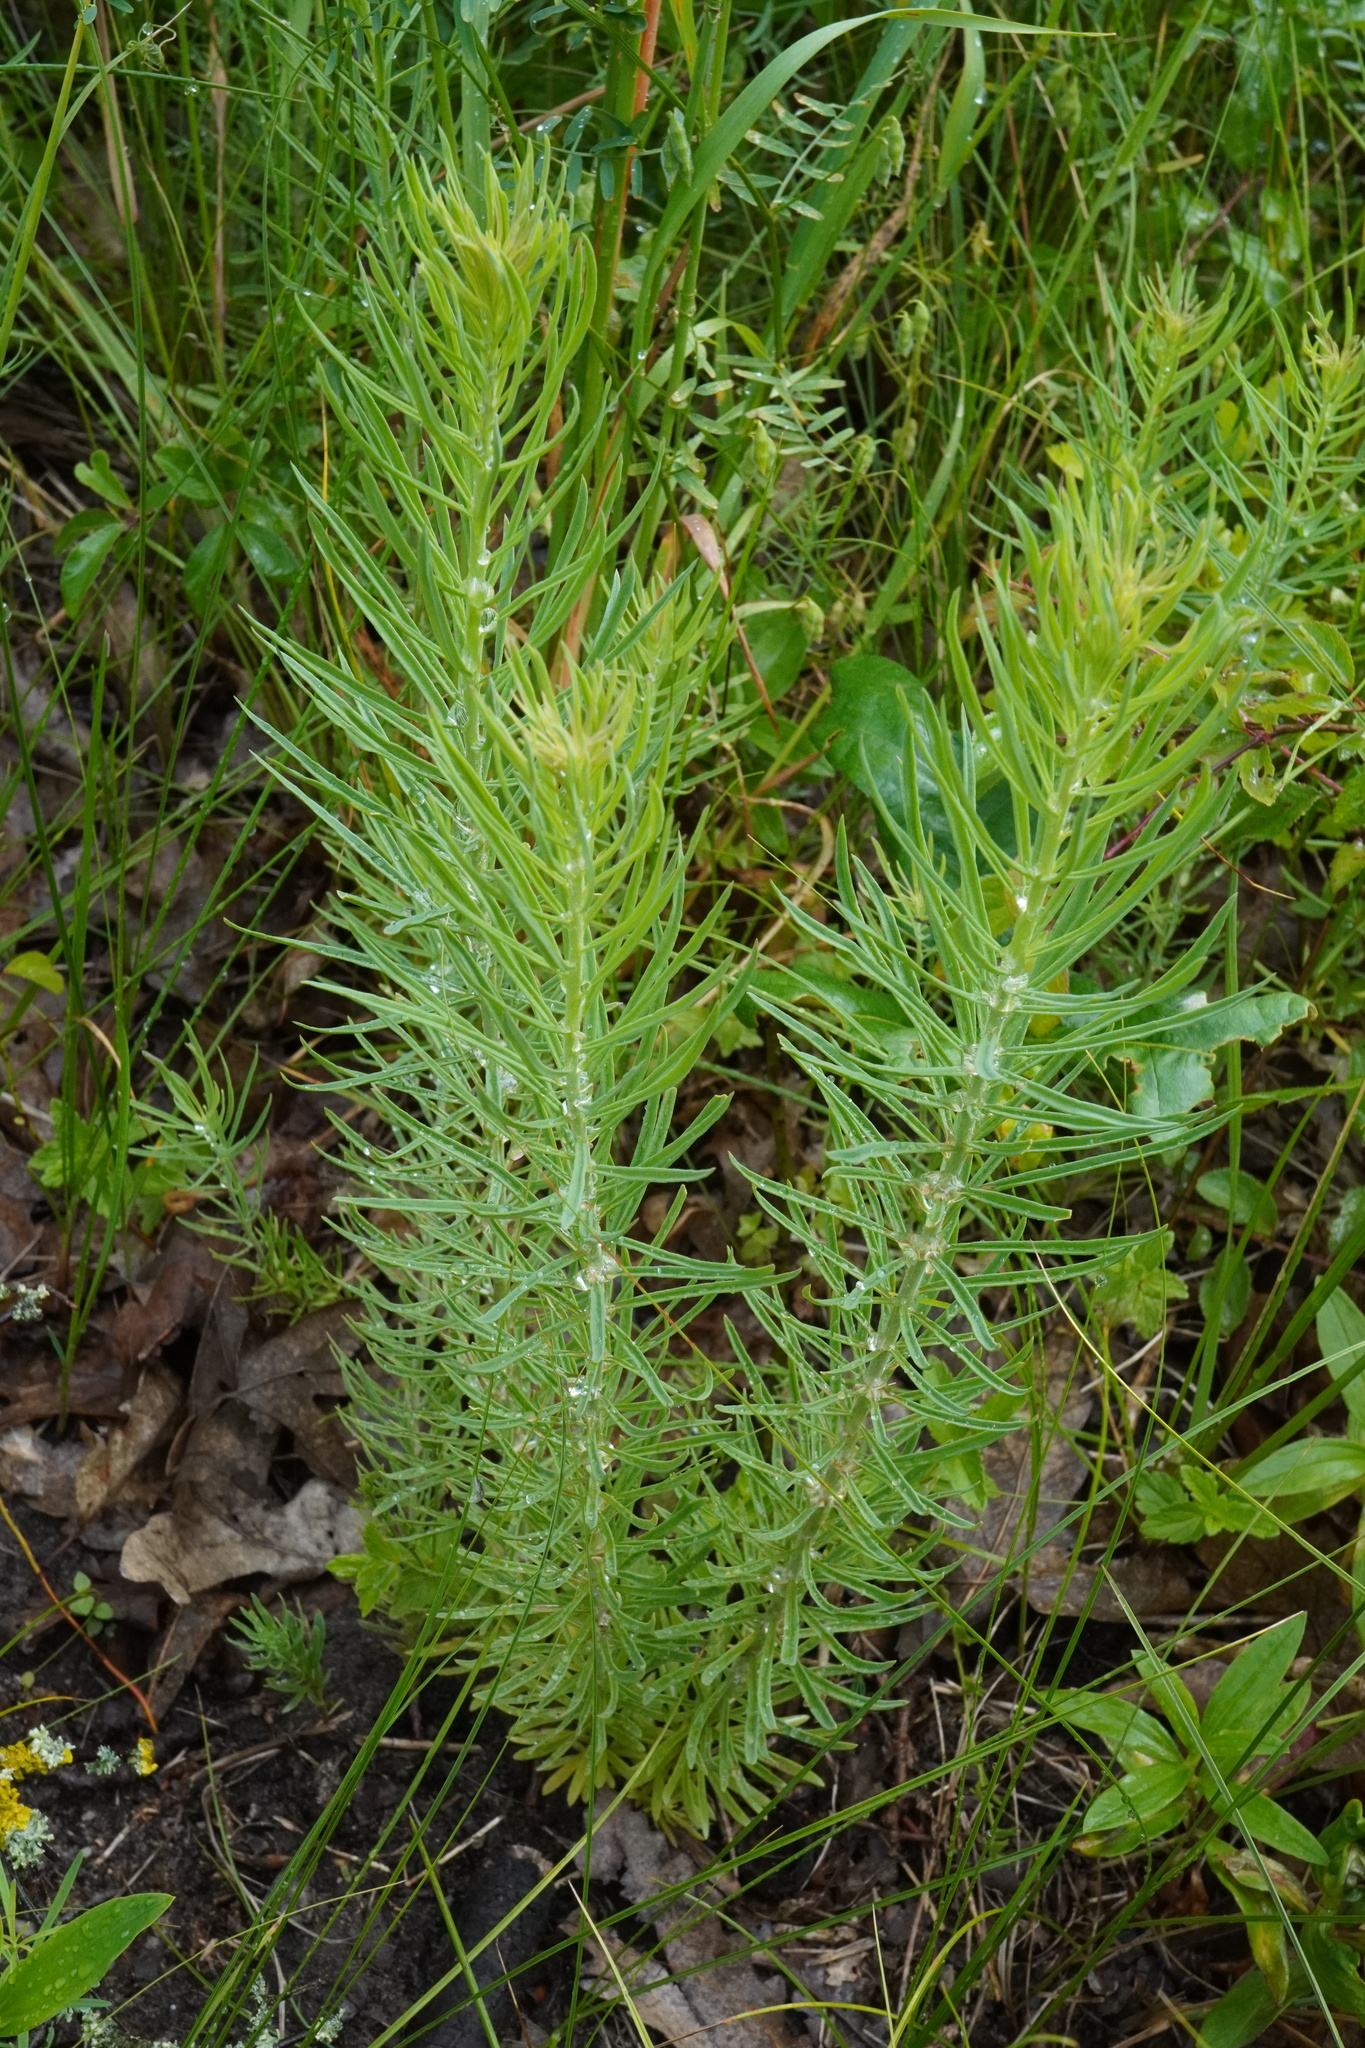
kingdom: Plantae
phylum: Tracheophyta
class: Magnoliopsida
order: Lamiales
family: Plantaginaceae
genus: Linaria
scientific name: Linaria vulgaris
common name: Butter and eggs
